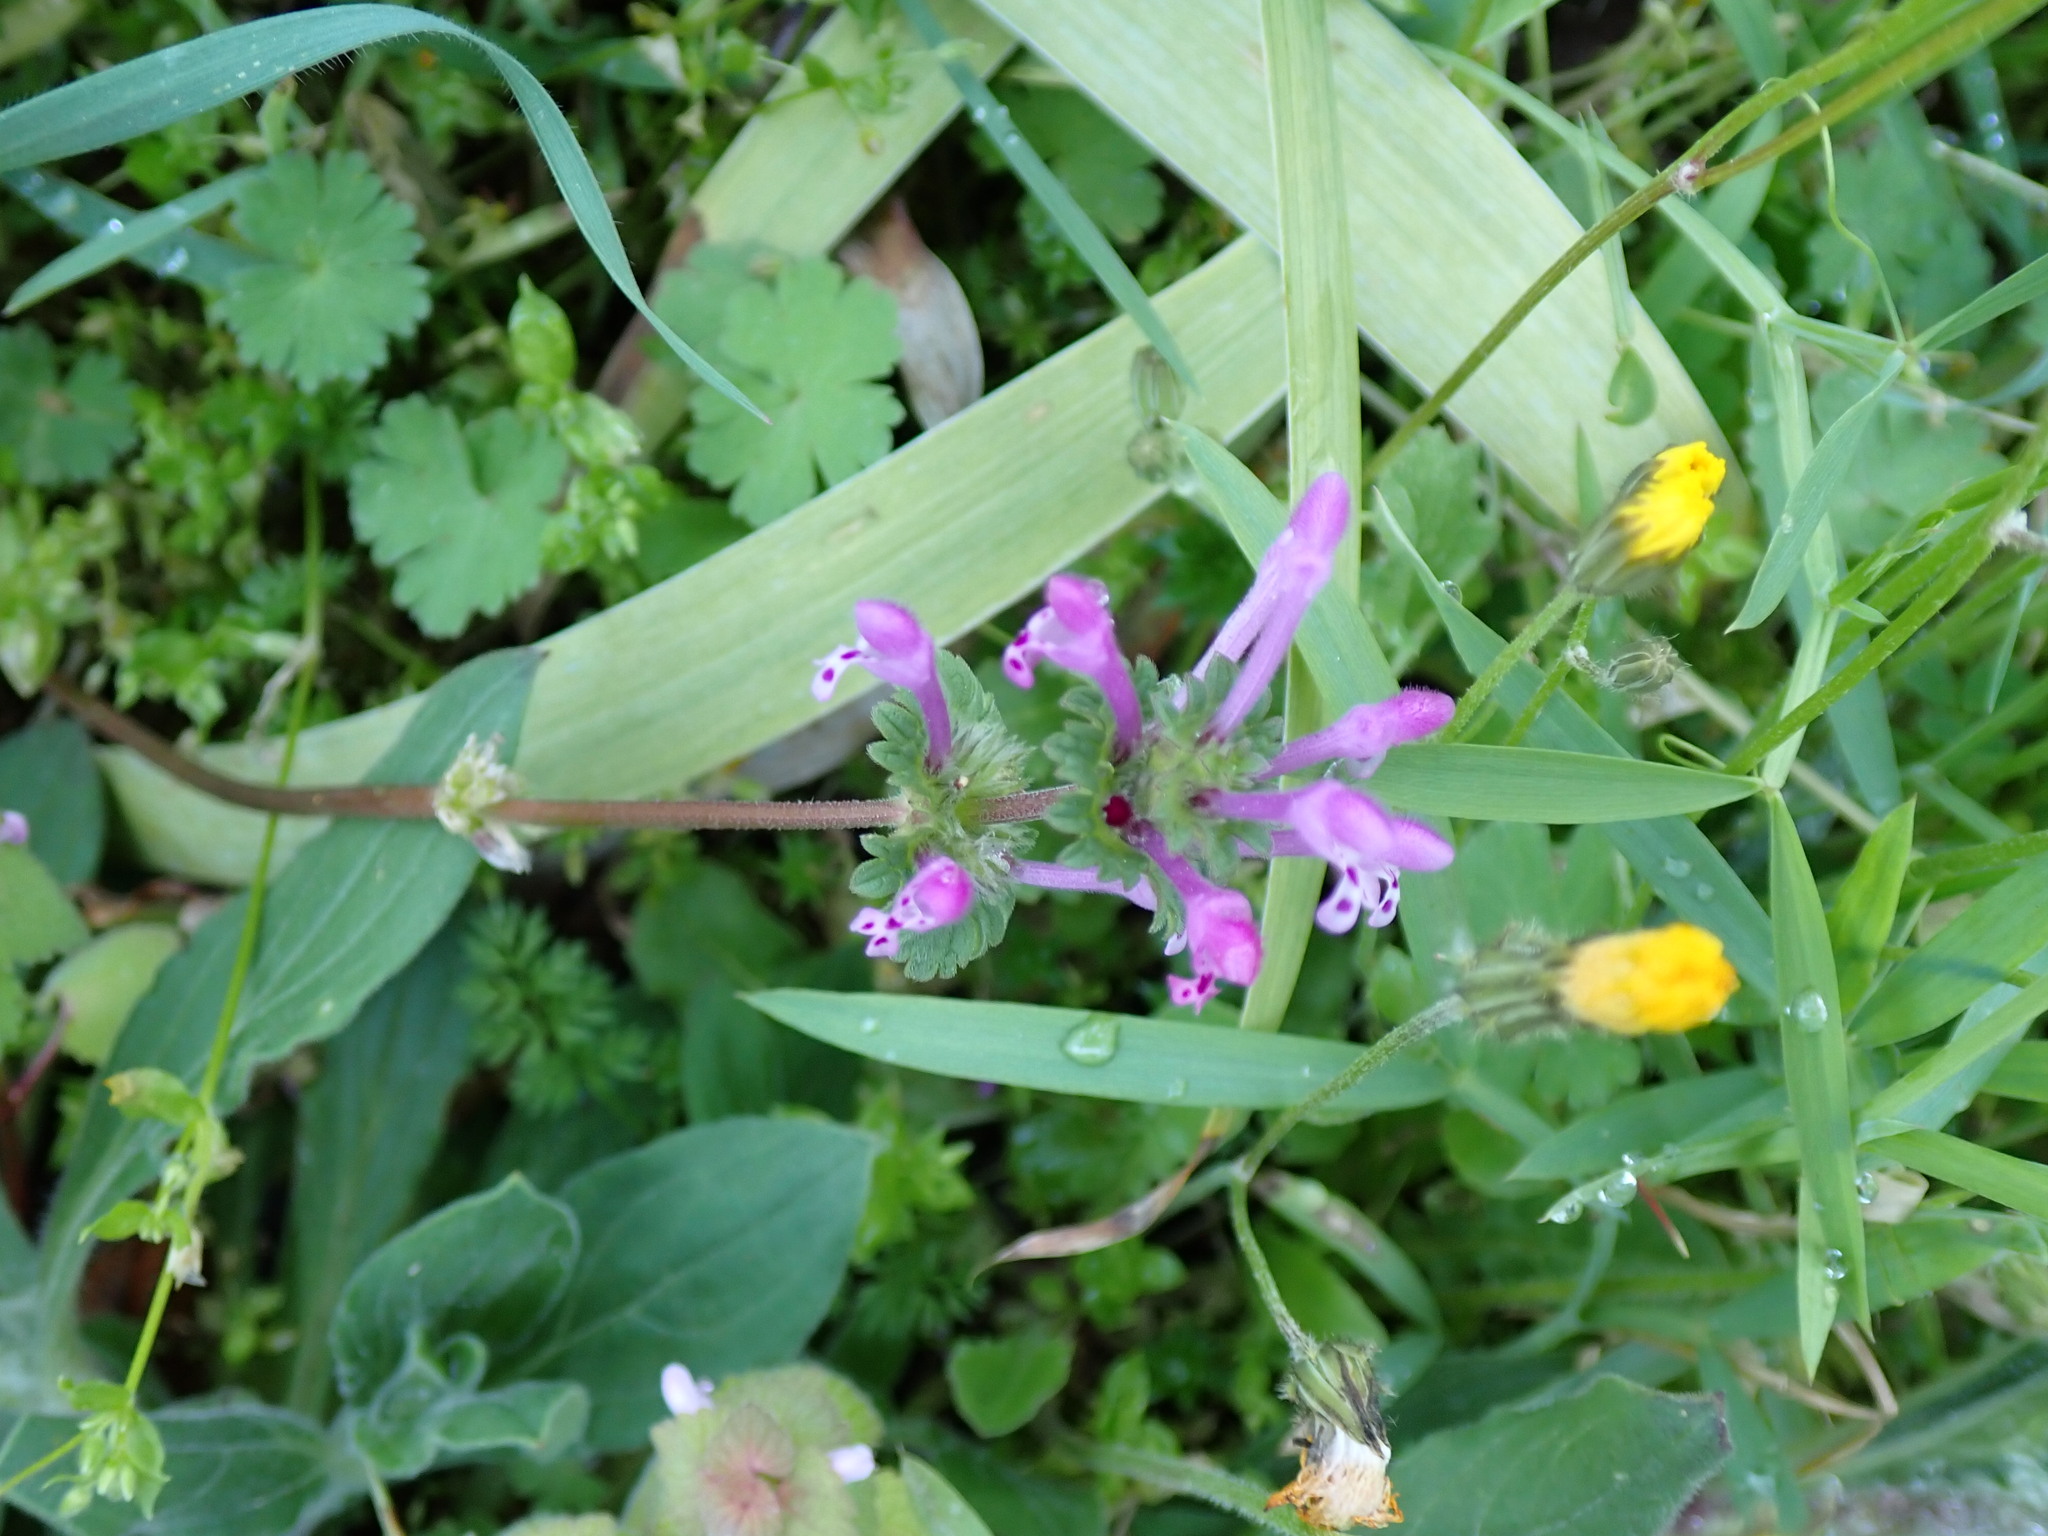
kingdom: Plantae
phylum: Tracheophyta
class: Magnoliopsida
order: Lamiales
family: Lamiaceae
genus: Lamium
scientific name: Lamium amplexicaule
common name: Henbit dead-nettle
